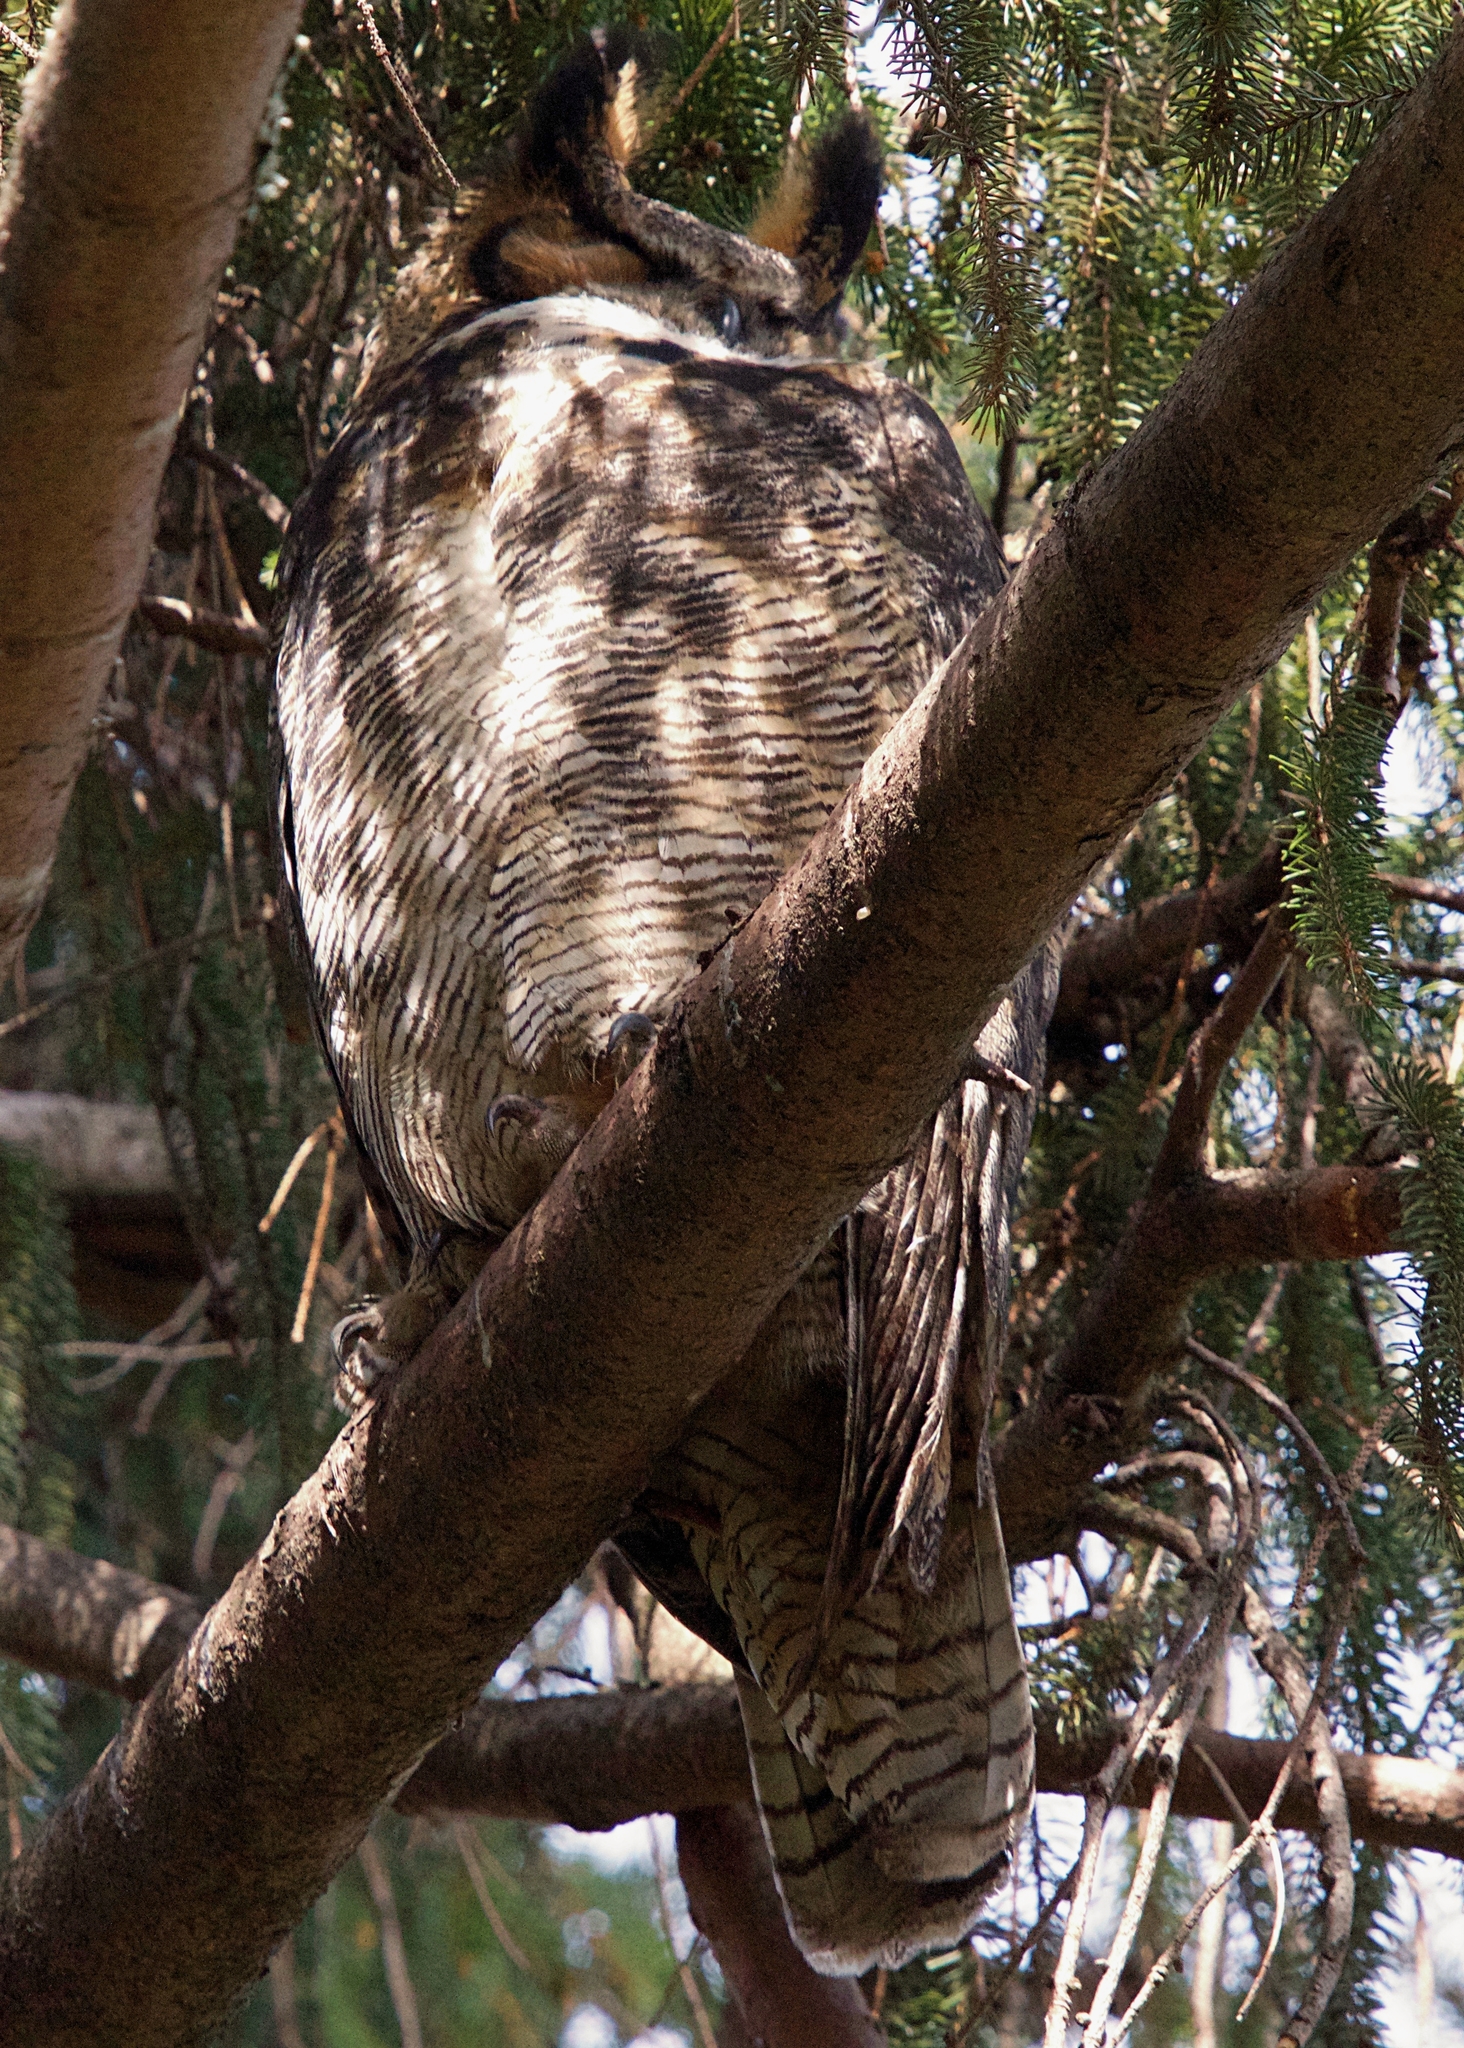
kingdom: Animalia
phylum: Chordata
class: Aves
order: Strigiformes
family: Strigidae
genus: Bubo
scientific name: Bubo virginianus
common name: Great horned owl
